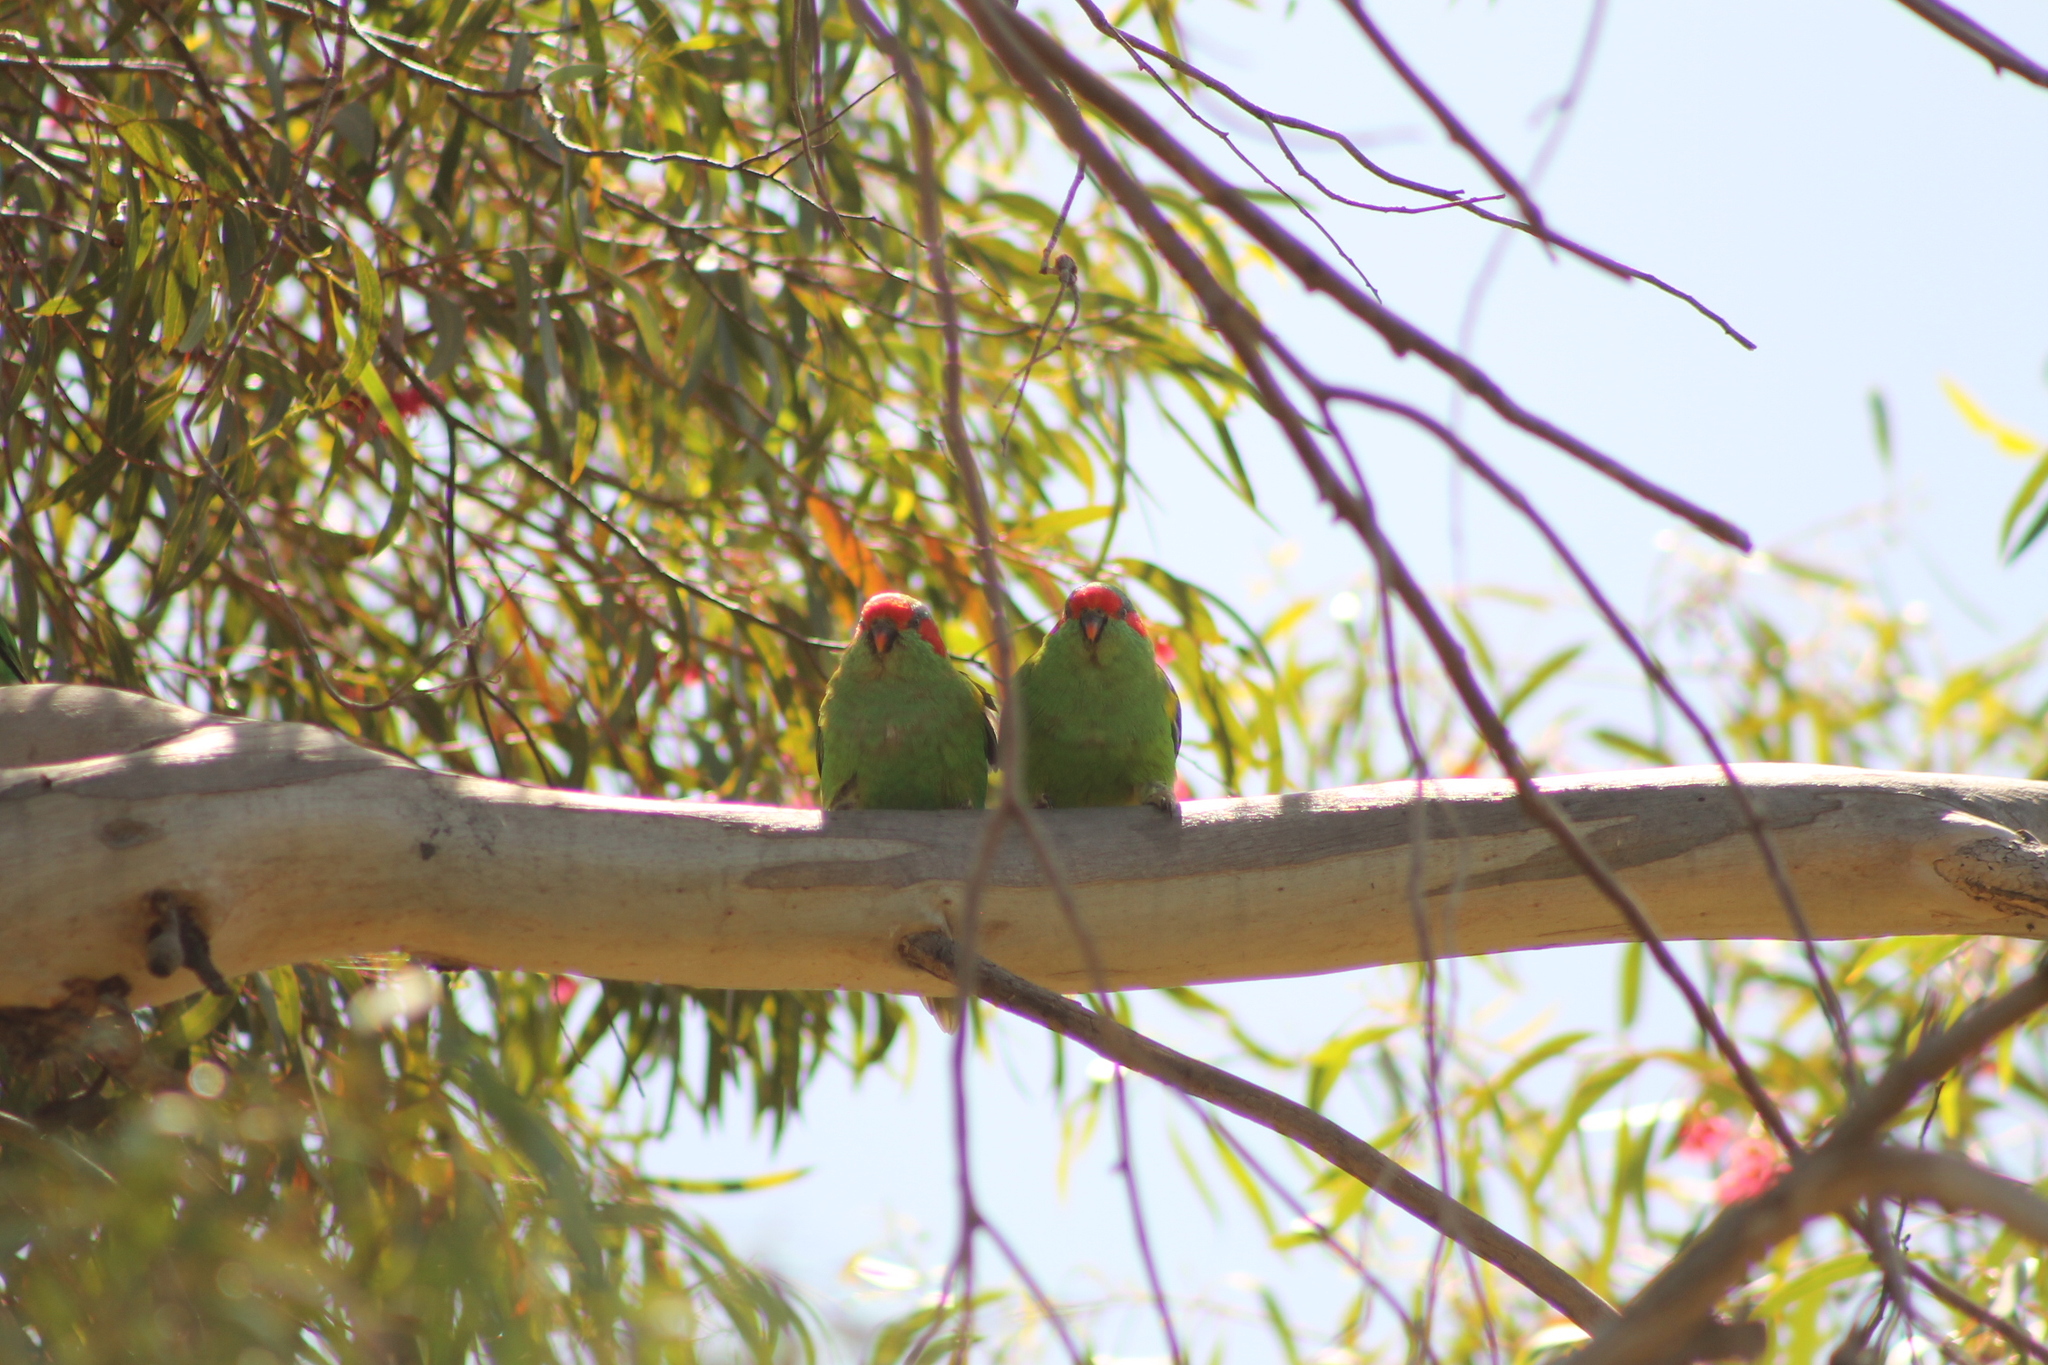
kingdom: Animalia
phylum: Chordata
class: Aves
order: Psittaciformes
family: Psittacidae
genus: Glossopsitta
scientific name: Glossopsitta concinna
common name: Musk lorikeet
